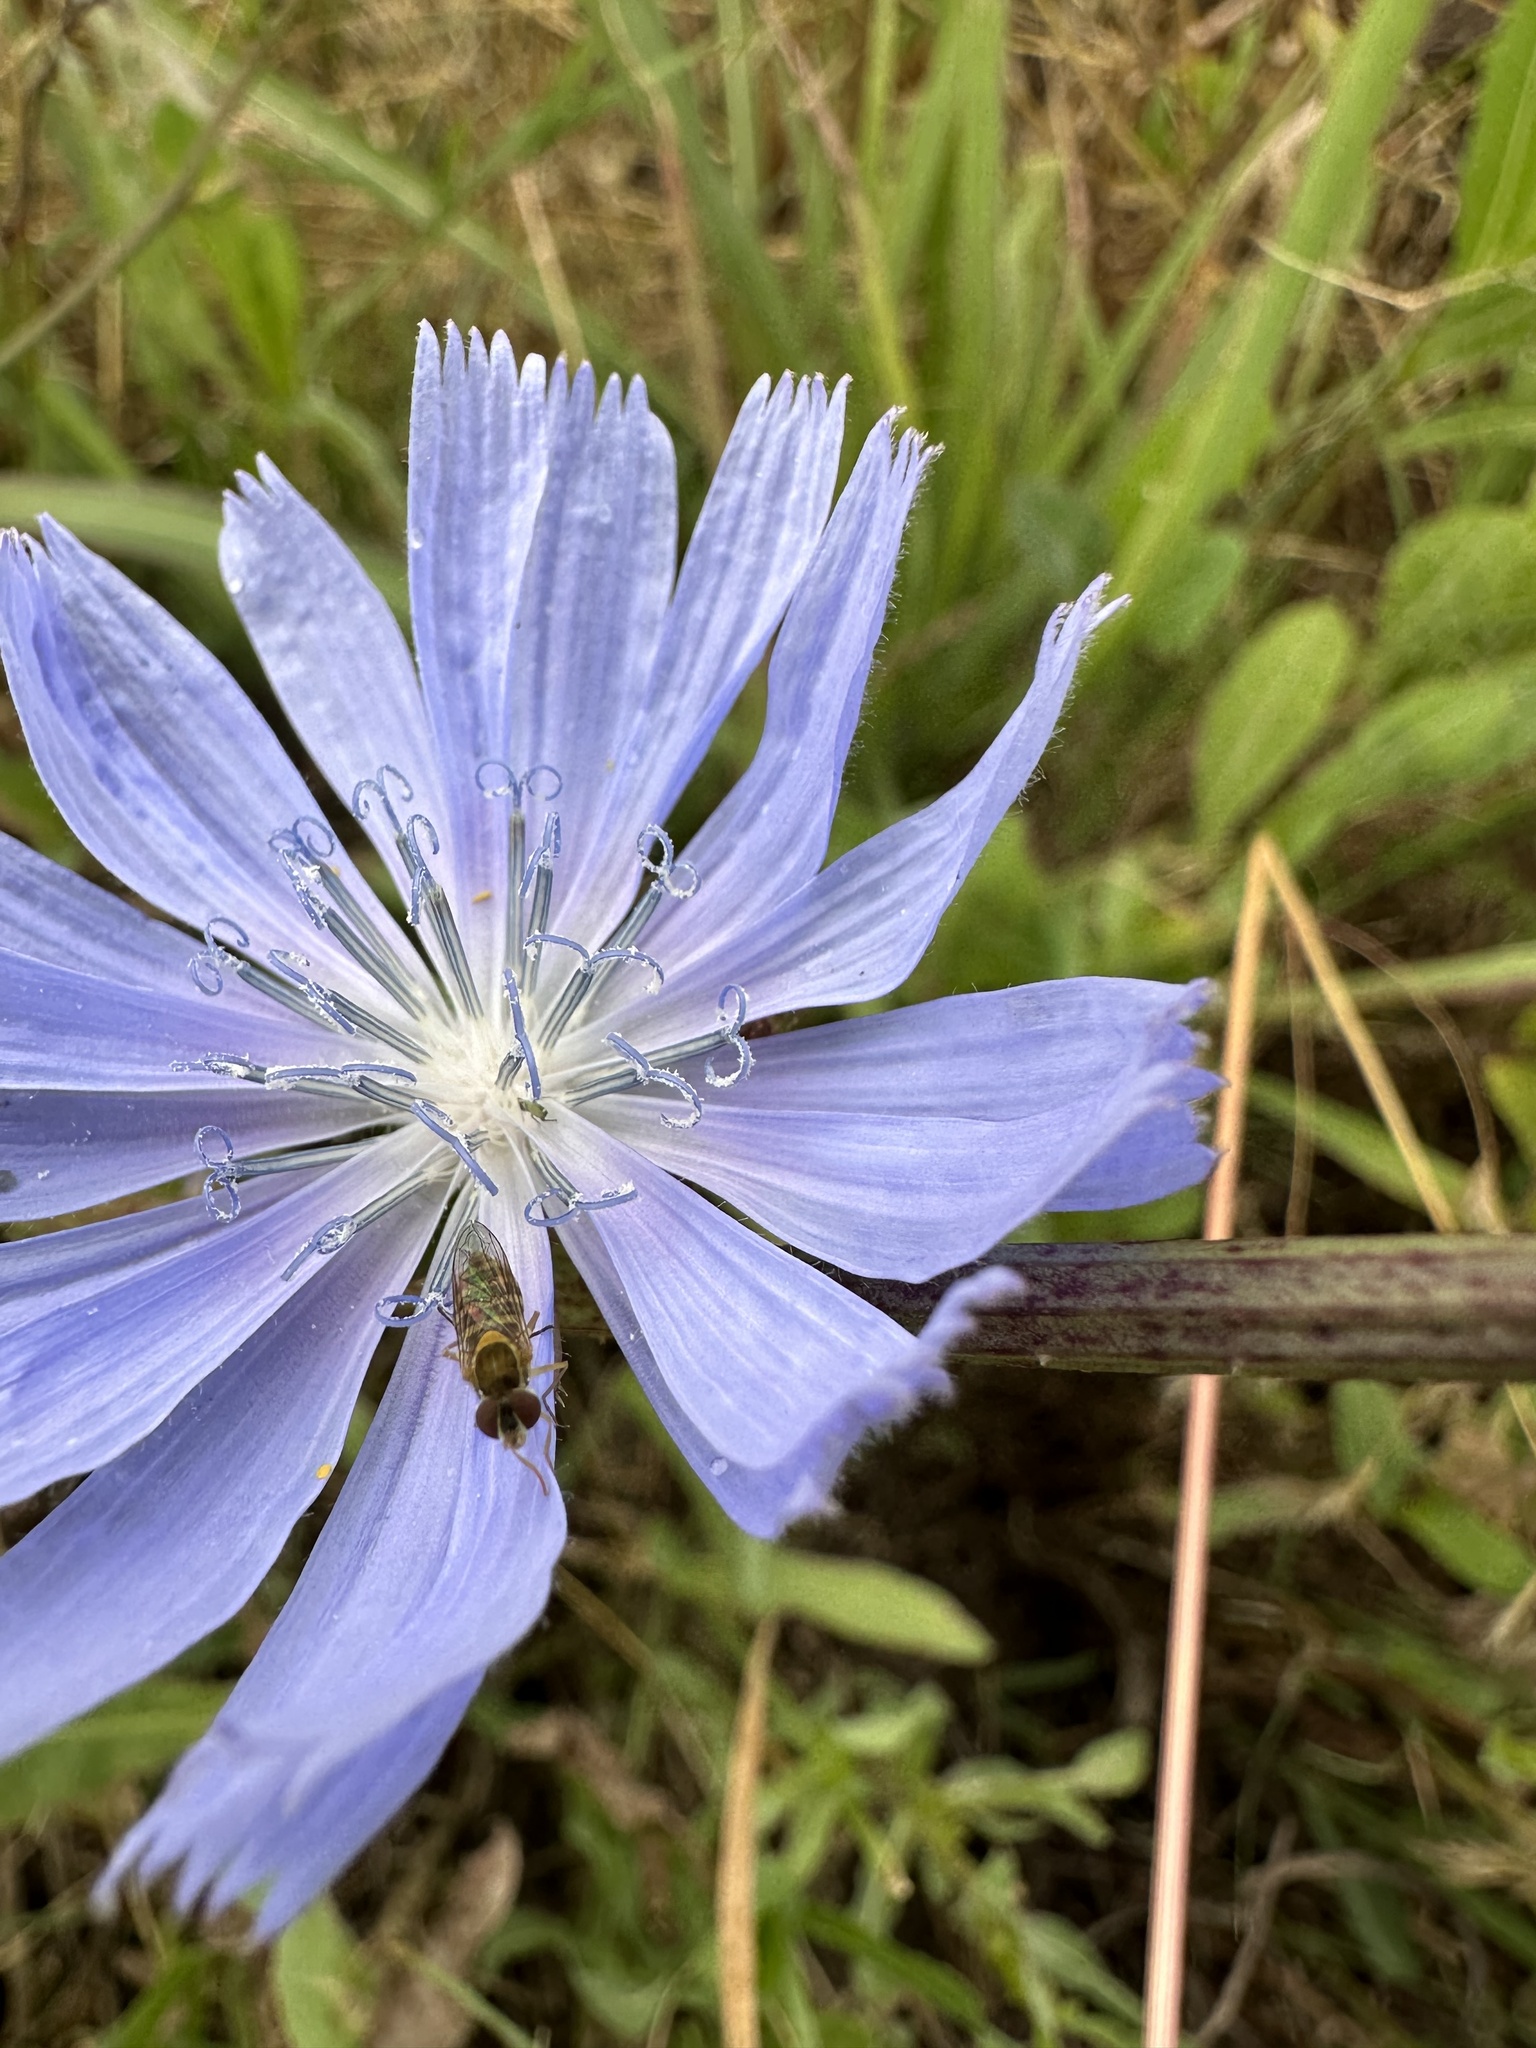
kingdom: Animalia
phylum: Arthropoda
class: Insecta
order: Diptera
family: Syrphidae
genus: Toxomerus
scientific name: Toxomerus calceolatus
